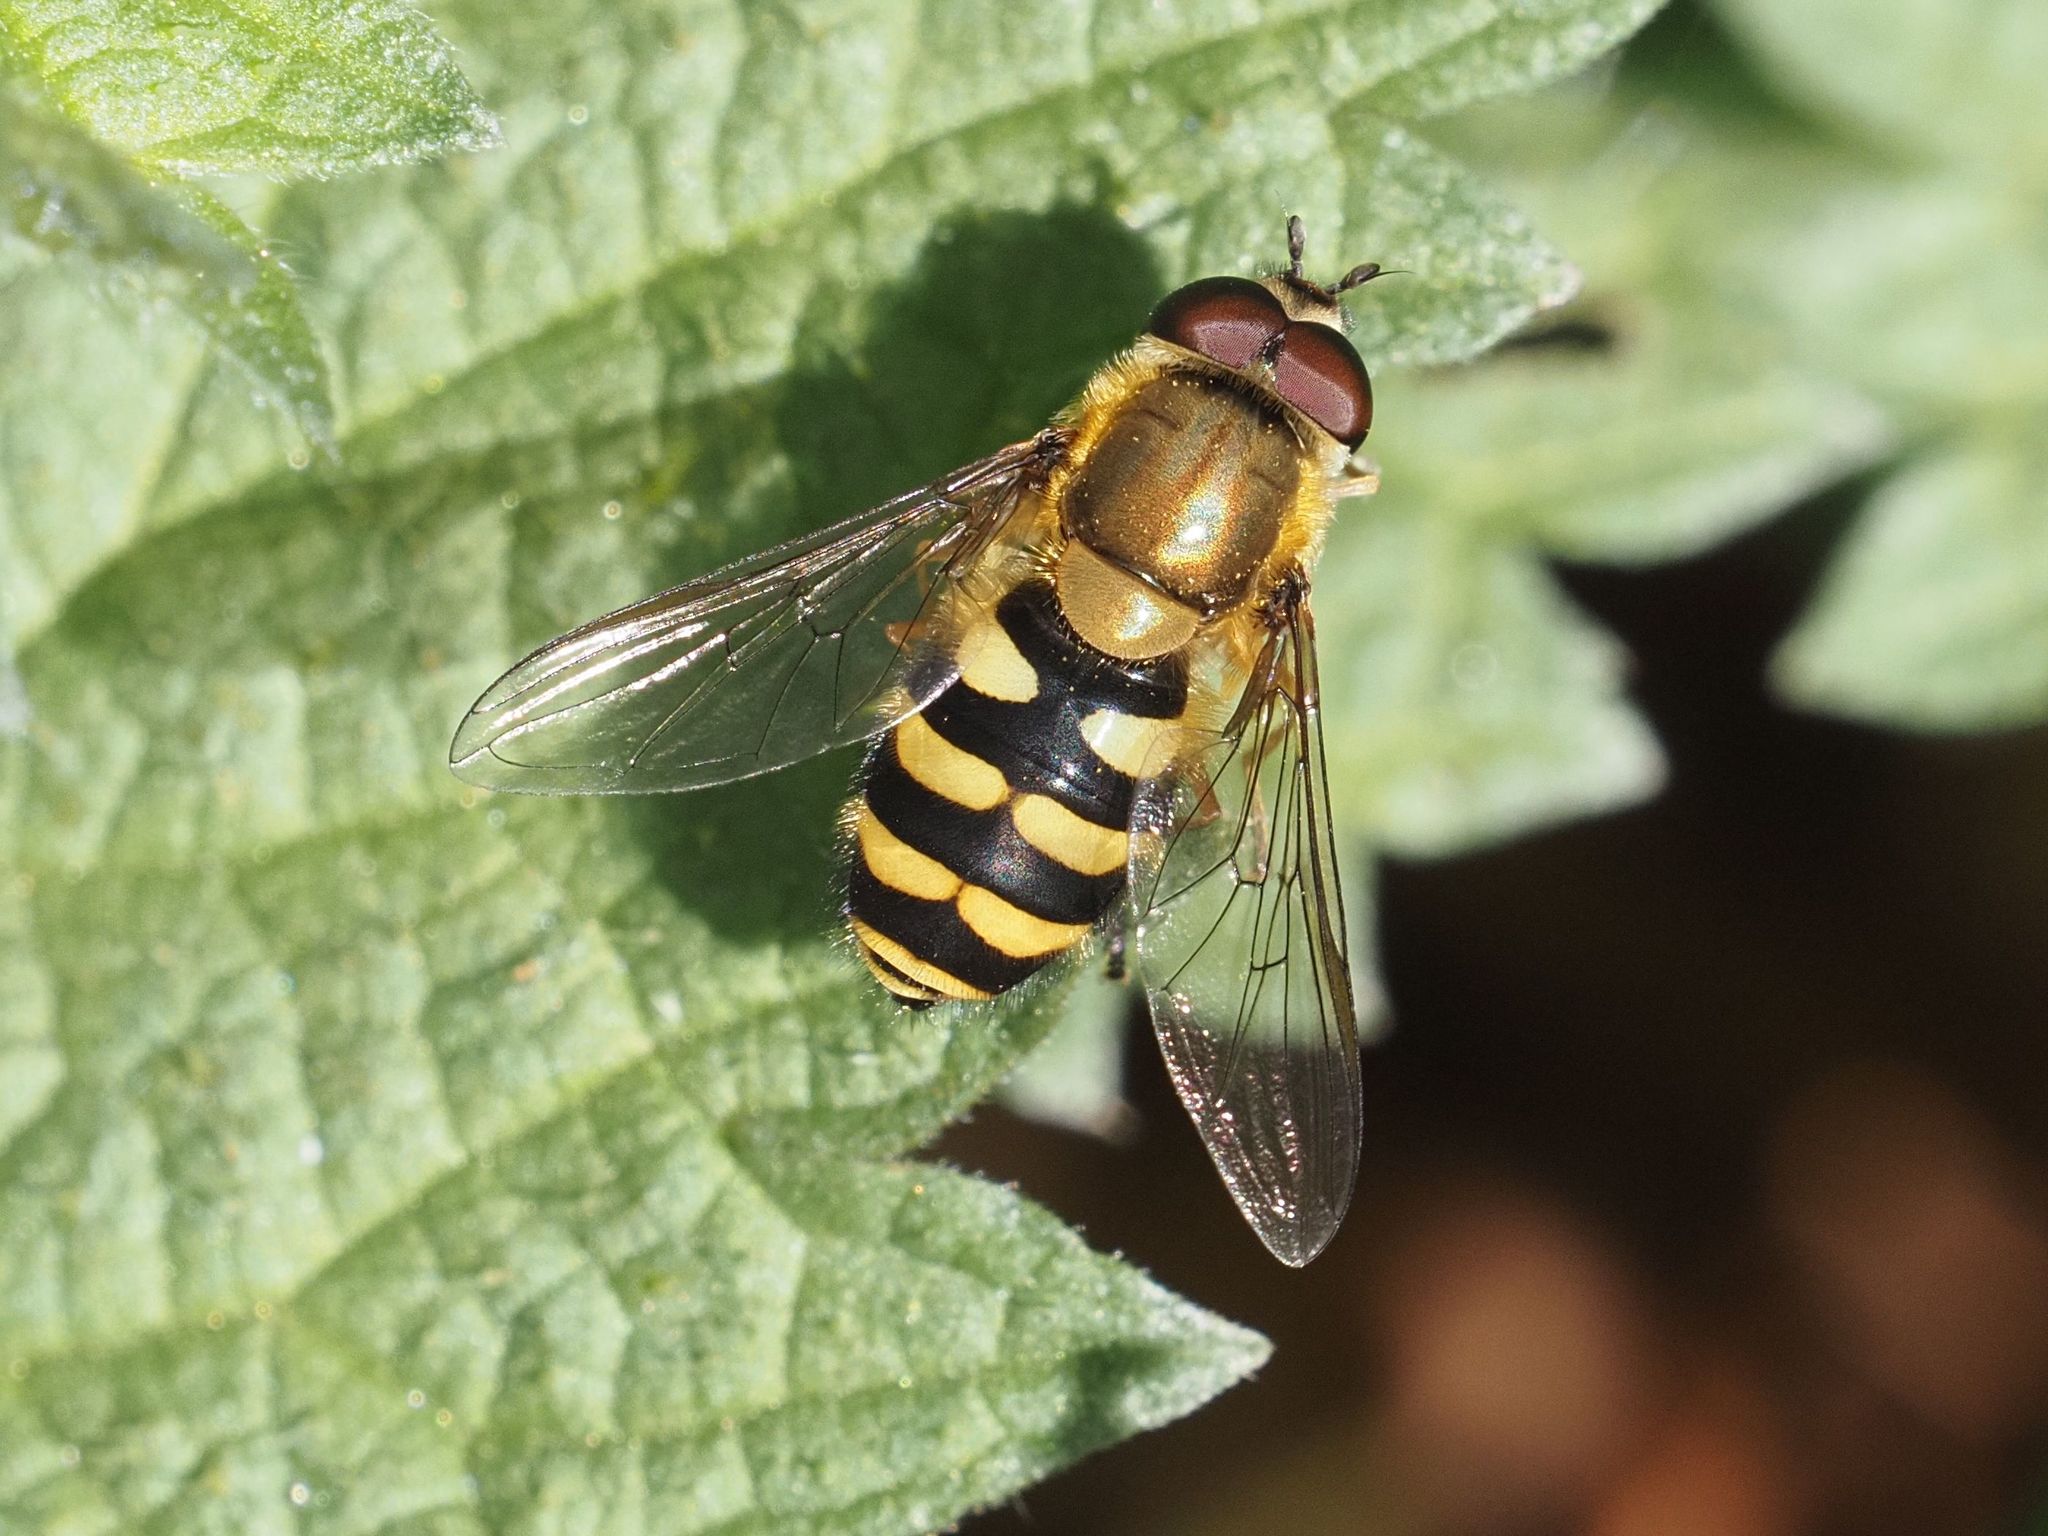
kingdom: Animalia
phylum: Arthropoda
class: Insecta
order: Diptera
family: Syrphidae
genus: Syrphus
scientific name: Syrphus
